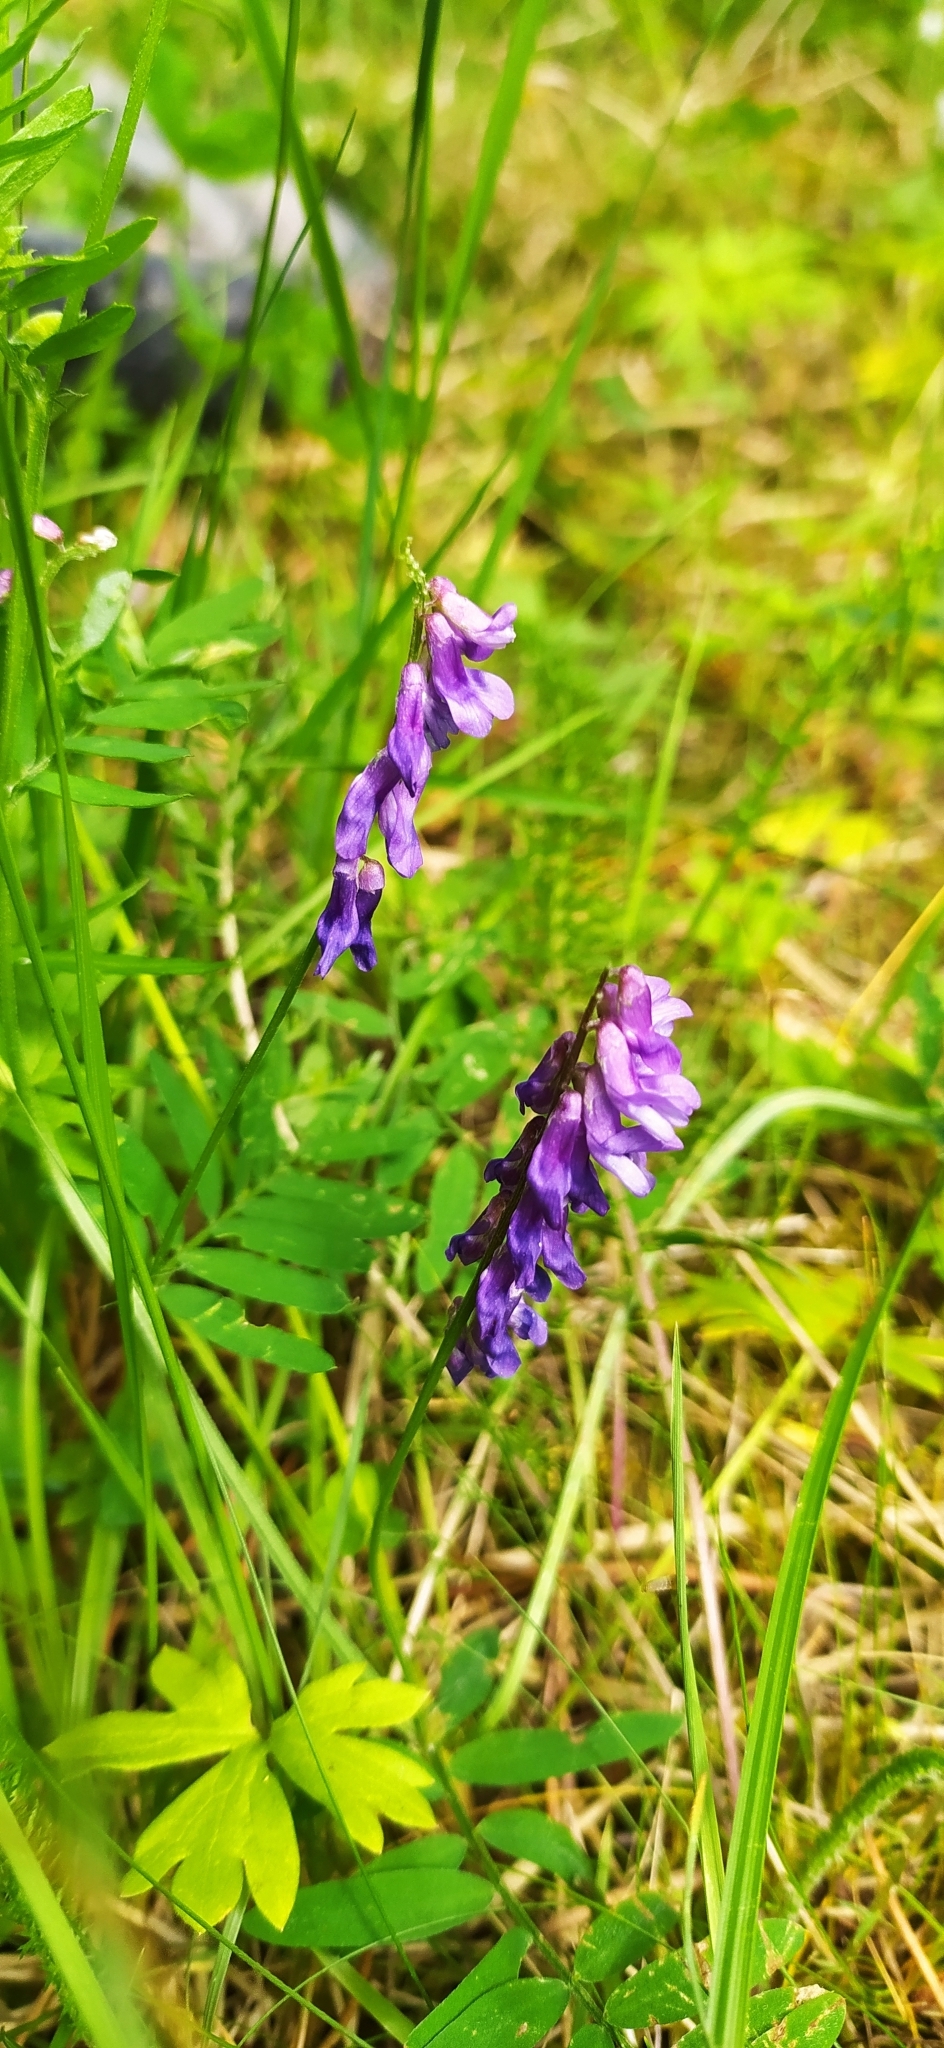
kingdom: Plantae
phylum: Tracheophyta
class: Magnoliopsida
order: Fabales
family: Fabaceae
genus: Vicia
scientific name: Vicia cracca
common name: Bird vetch
